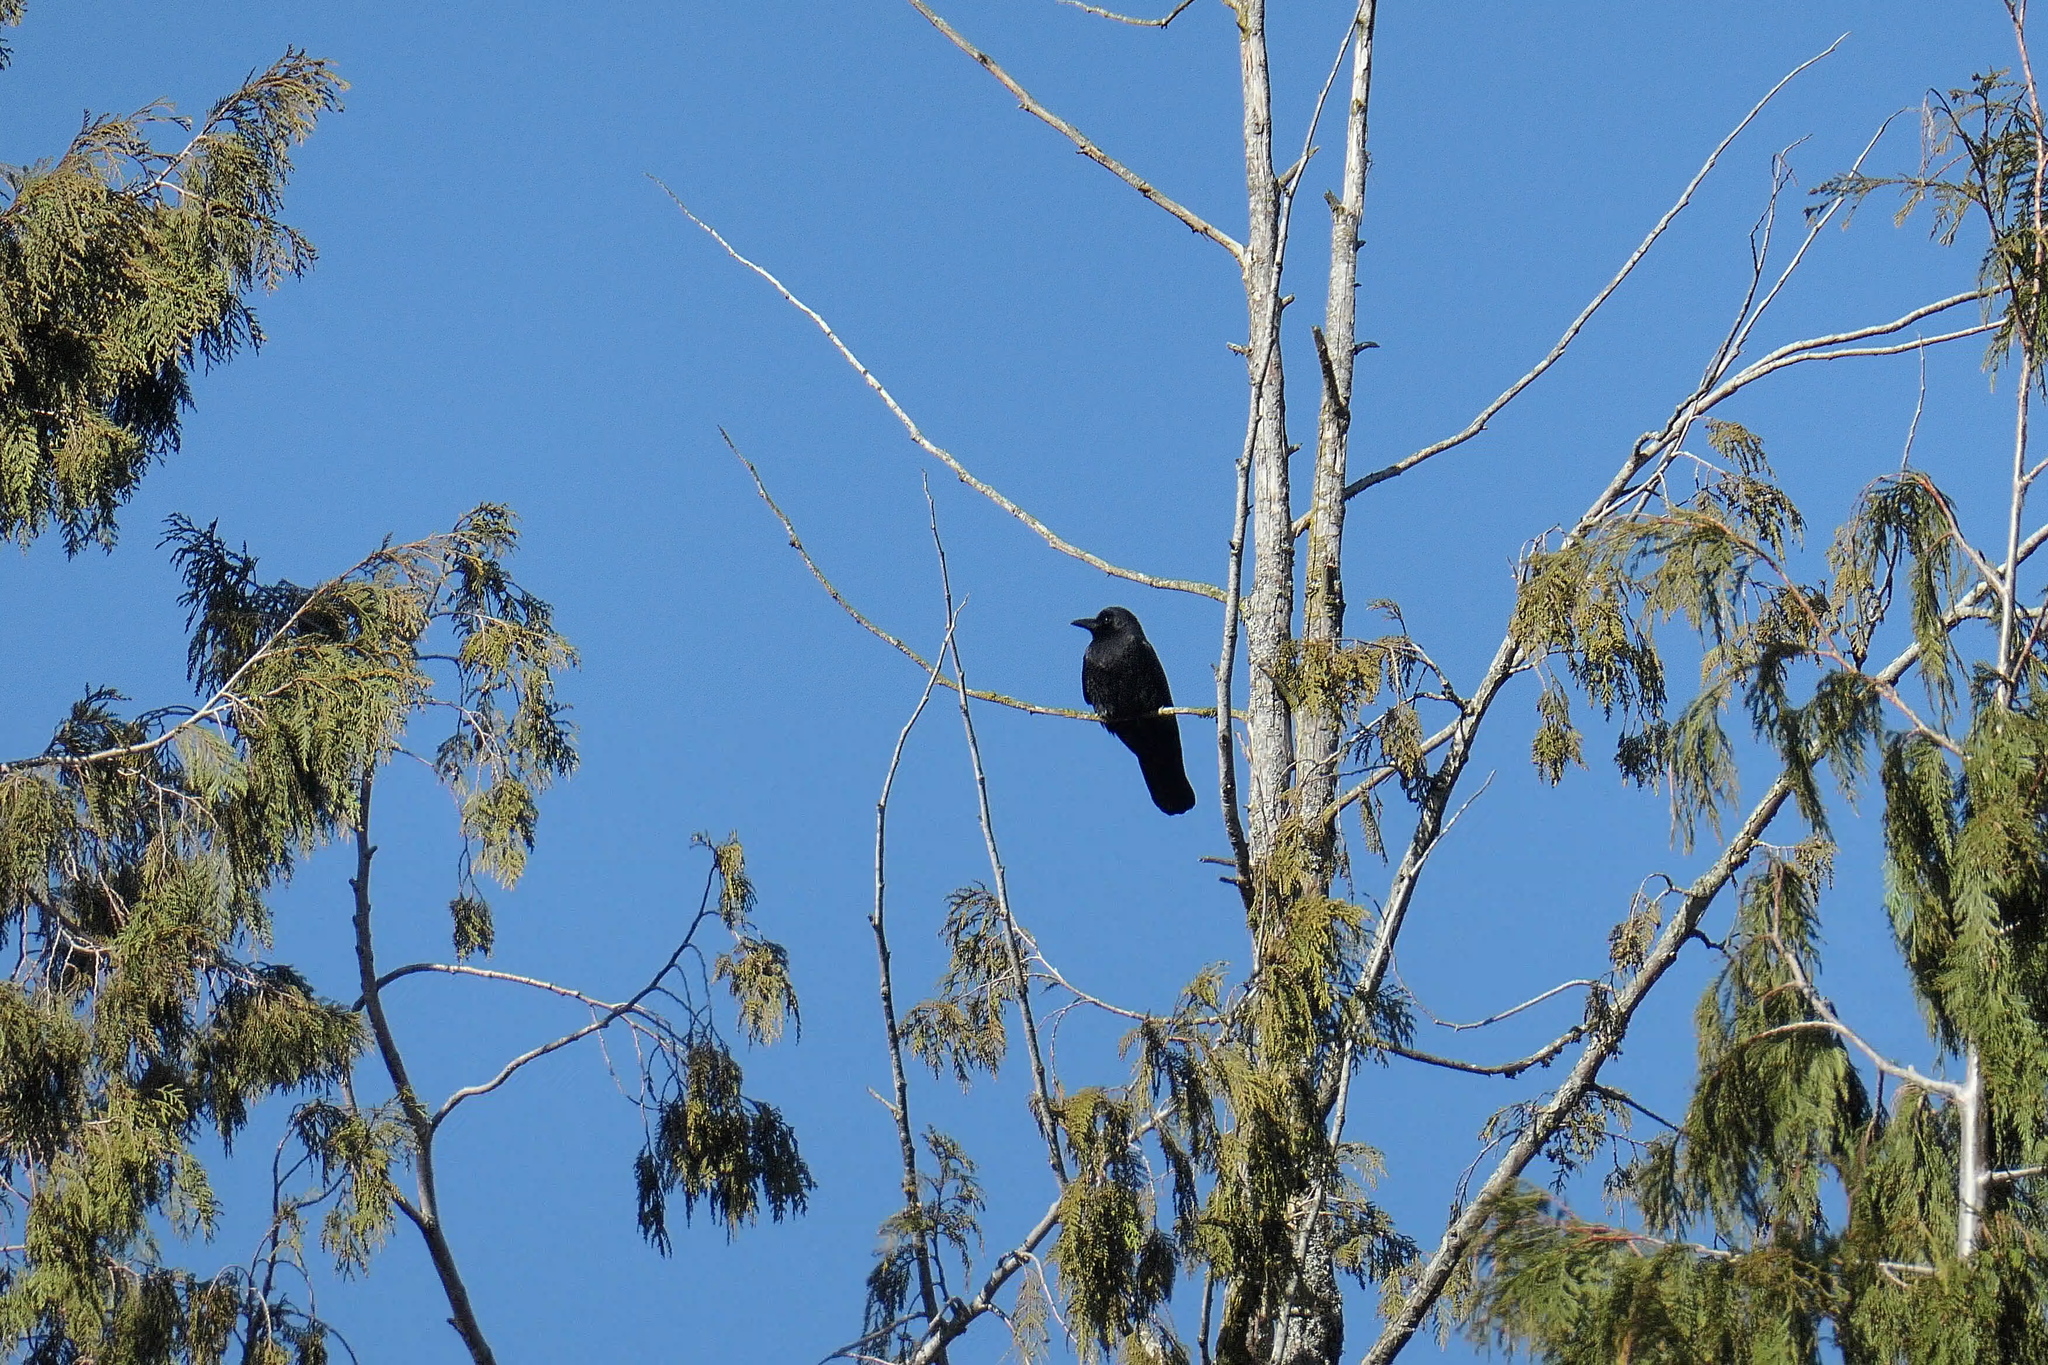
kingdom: Animalia
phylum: Chordata
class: Aves
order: Passeriformes
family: Corvidae
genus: Corvus
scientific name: Corvus brachyrhynchos
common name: American crow
